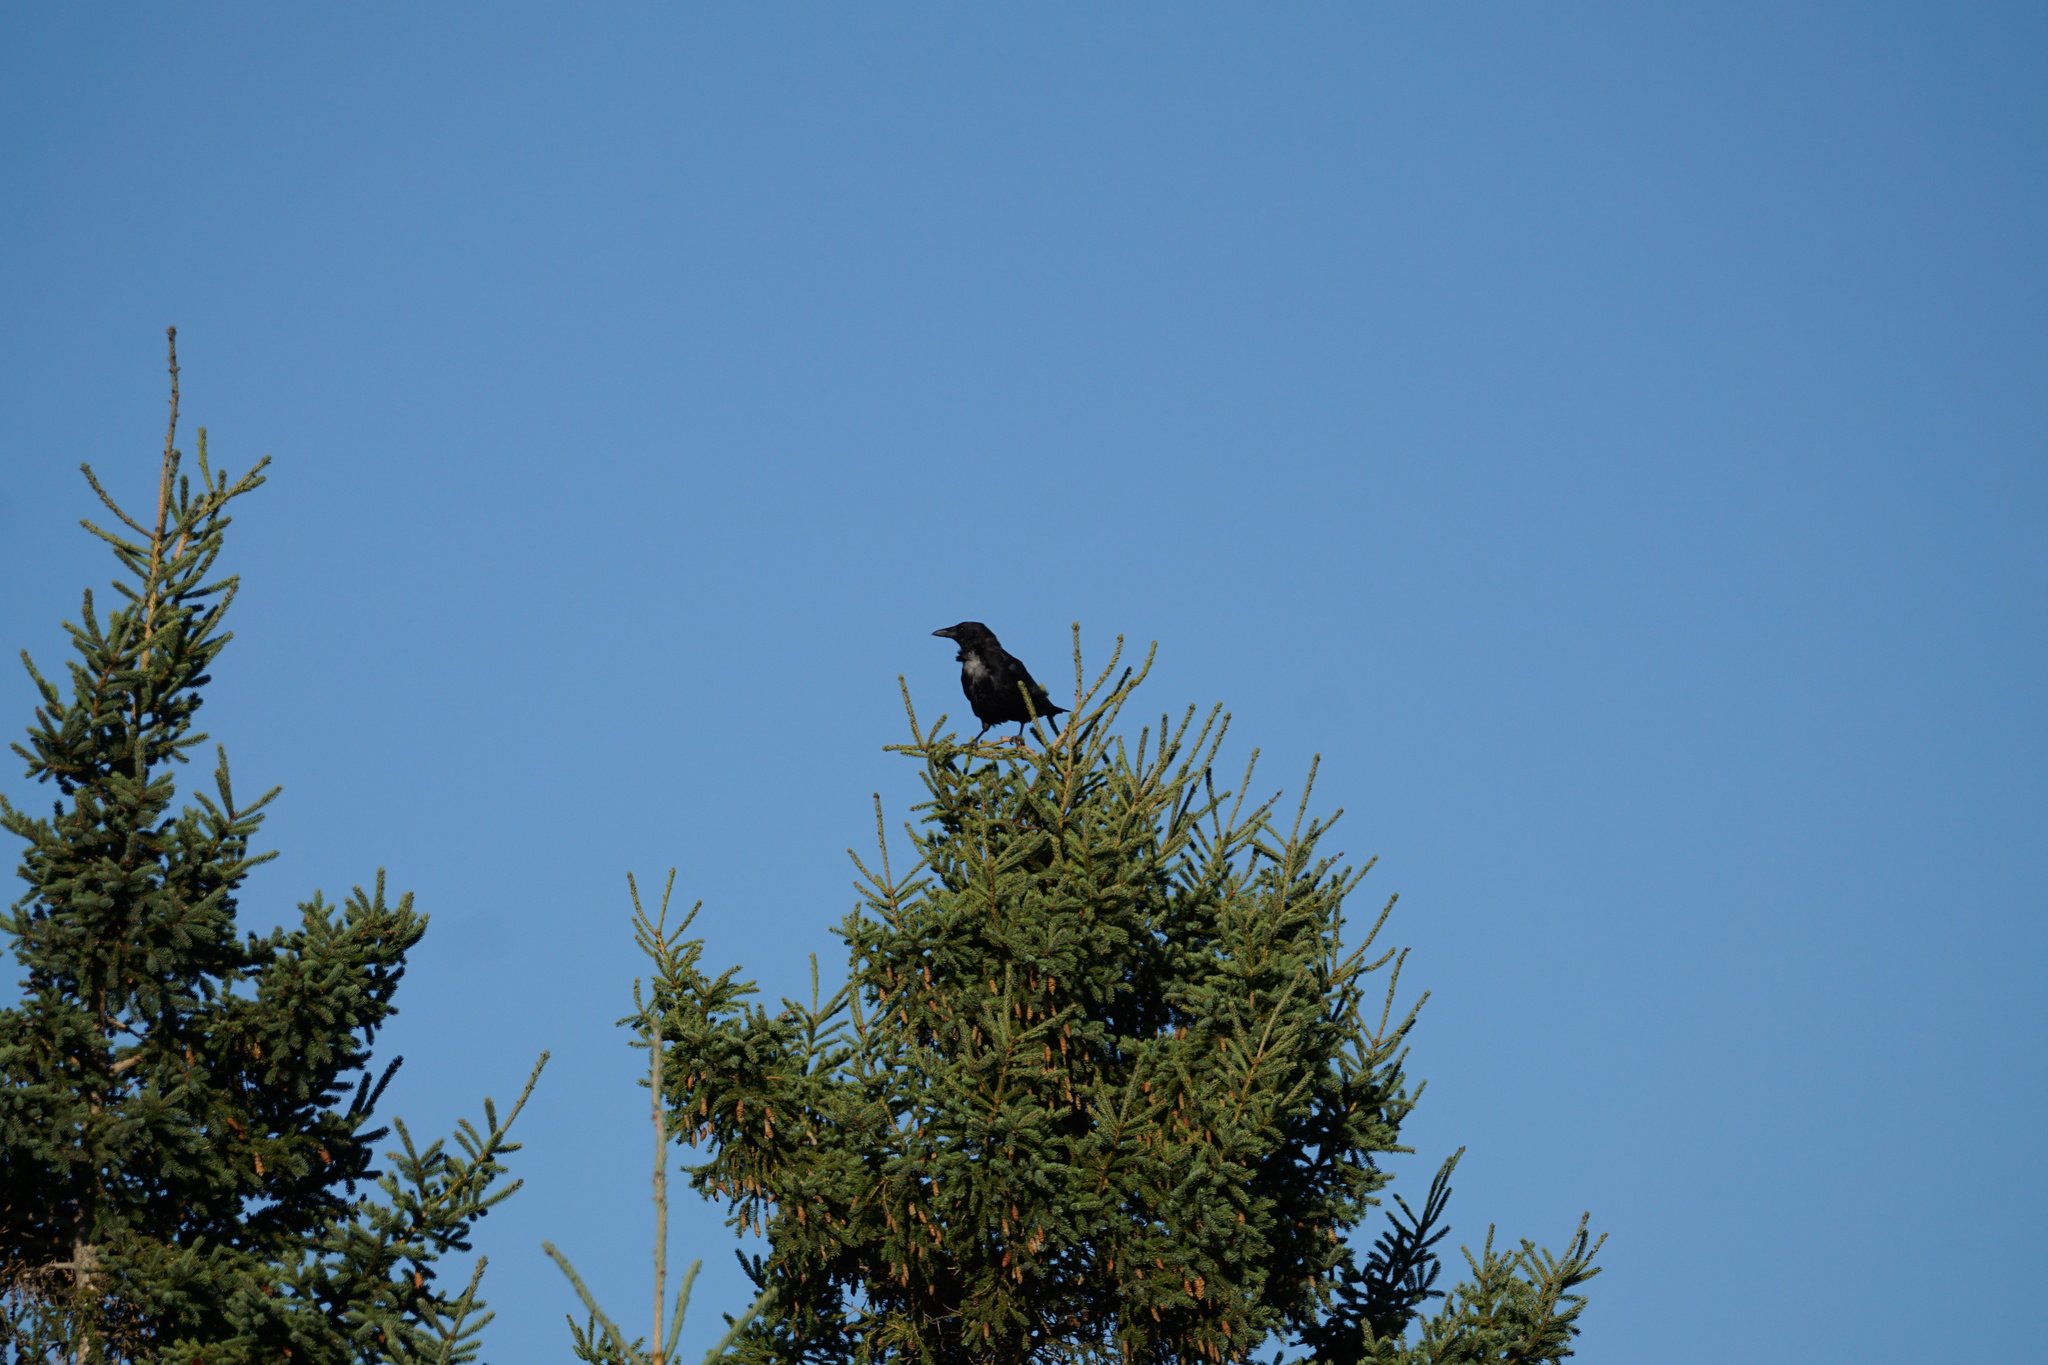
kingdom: Animalia
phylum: Chordata
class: Aves
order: Passeriformes
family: Corvidae
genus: Corvus
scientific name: Corvus brachyrhynchos
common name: American crow
